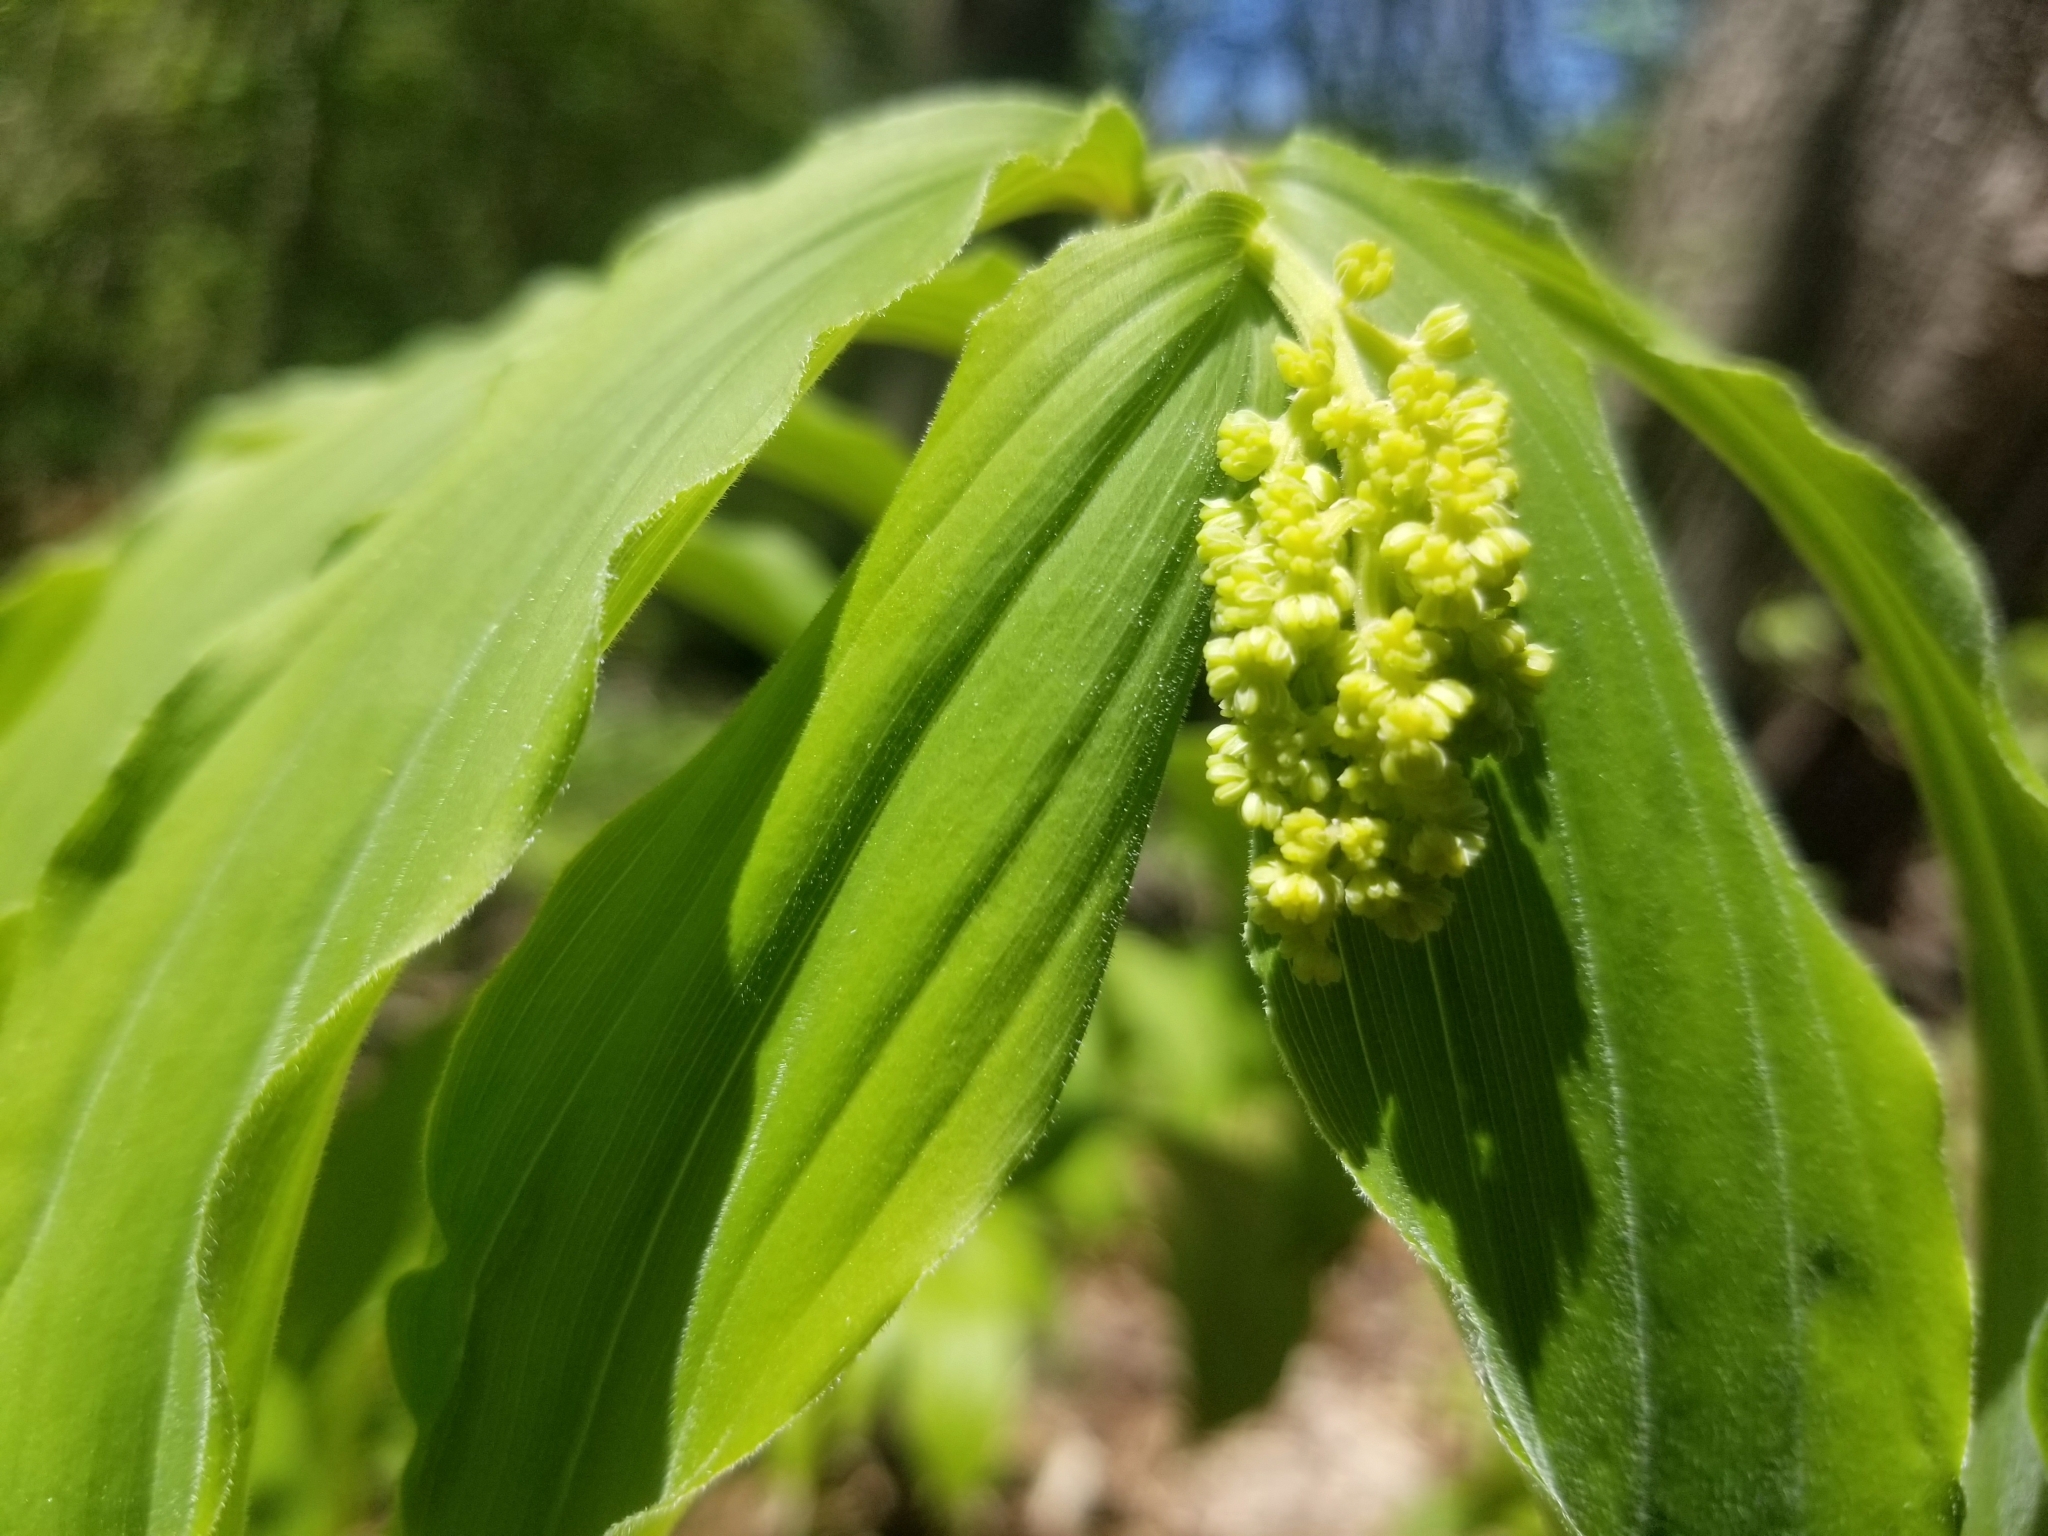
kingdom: Plantae
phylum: Tracheophyta
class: Liliopsida
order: Asparagales
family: Asparagaceae
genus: Maianthemum
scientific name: Maianthemum racemosum
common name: False spikenard
